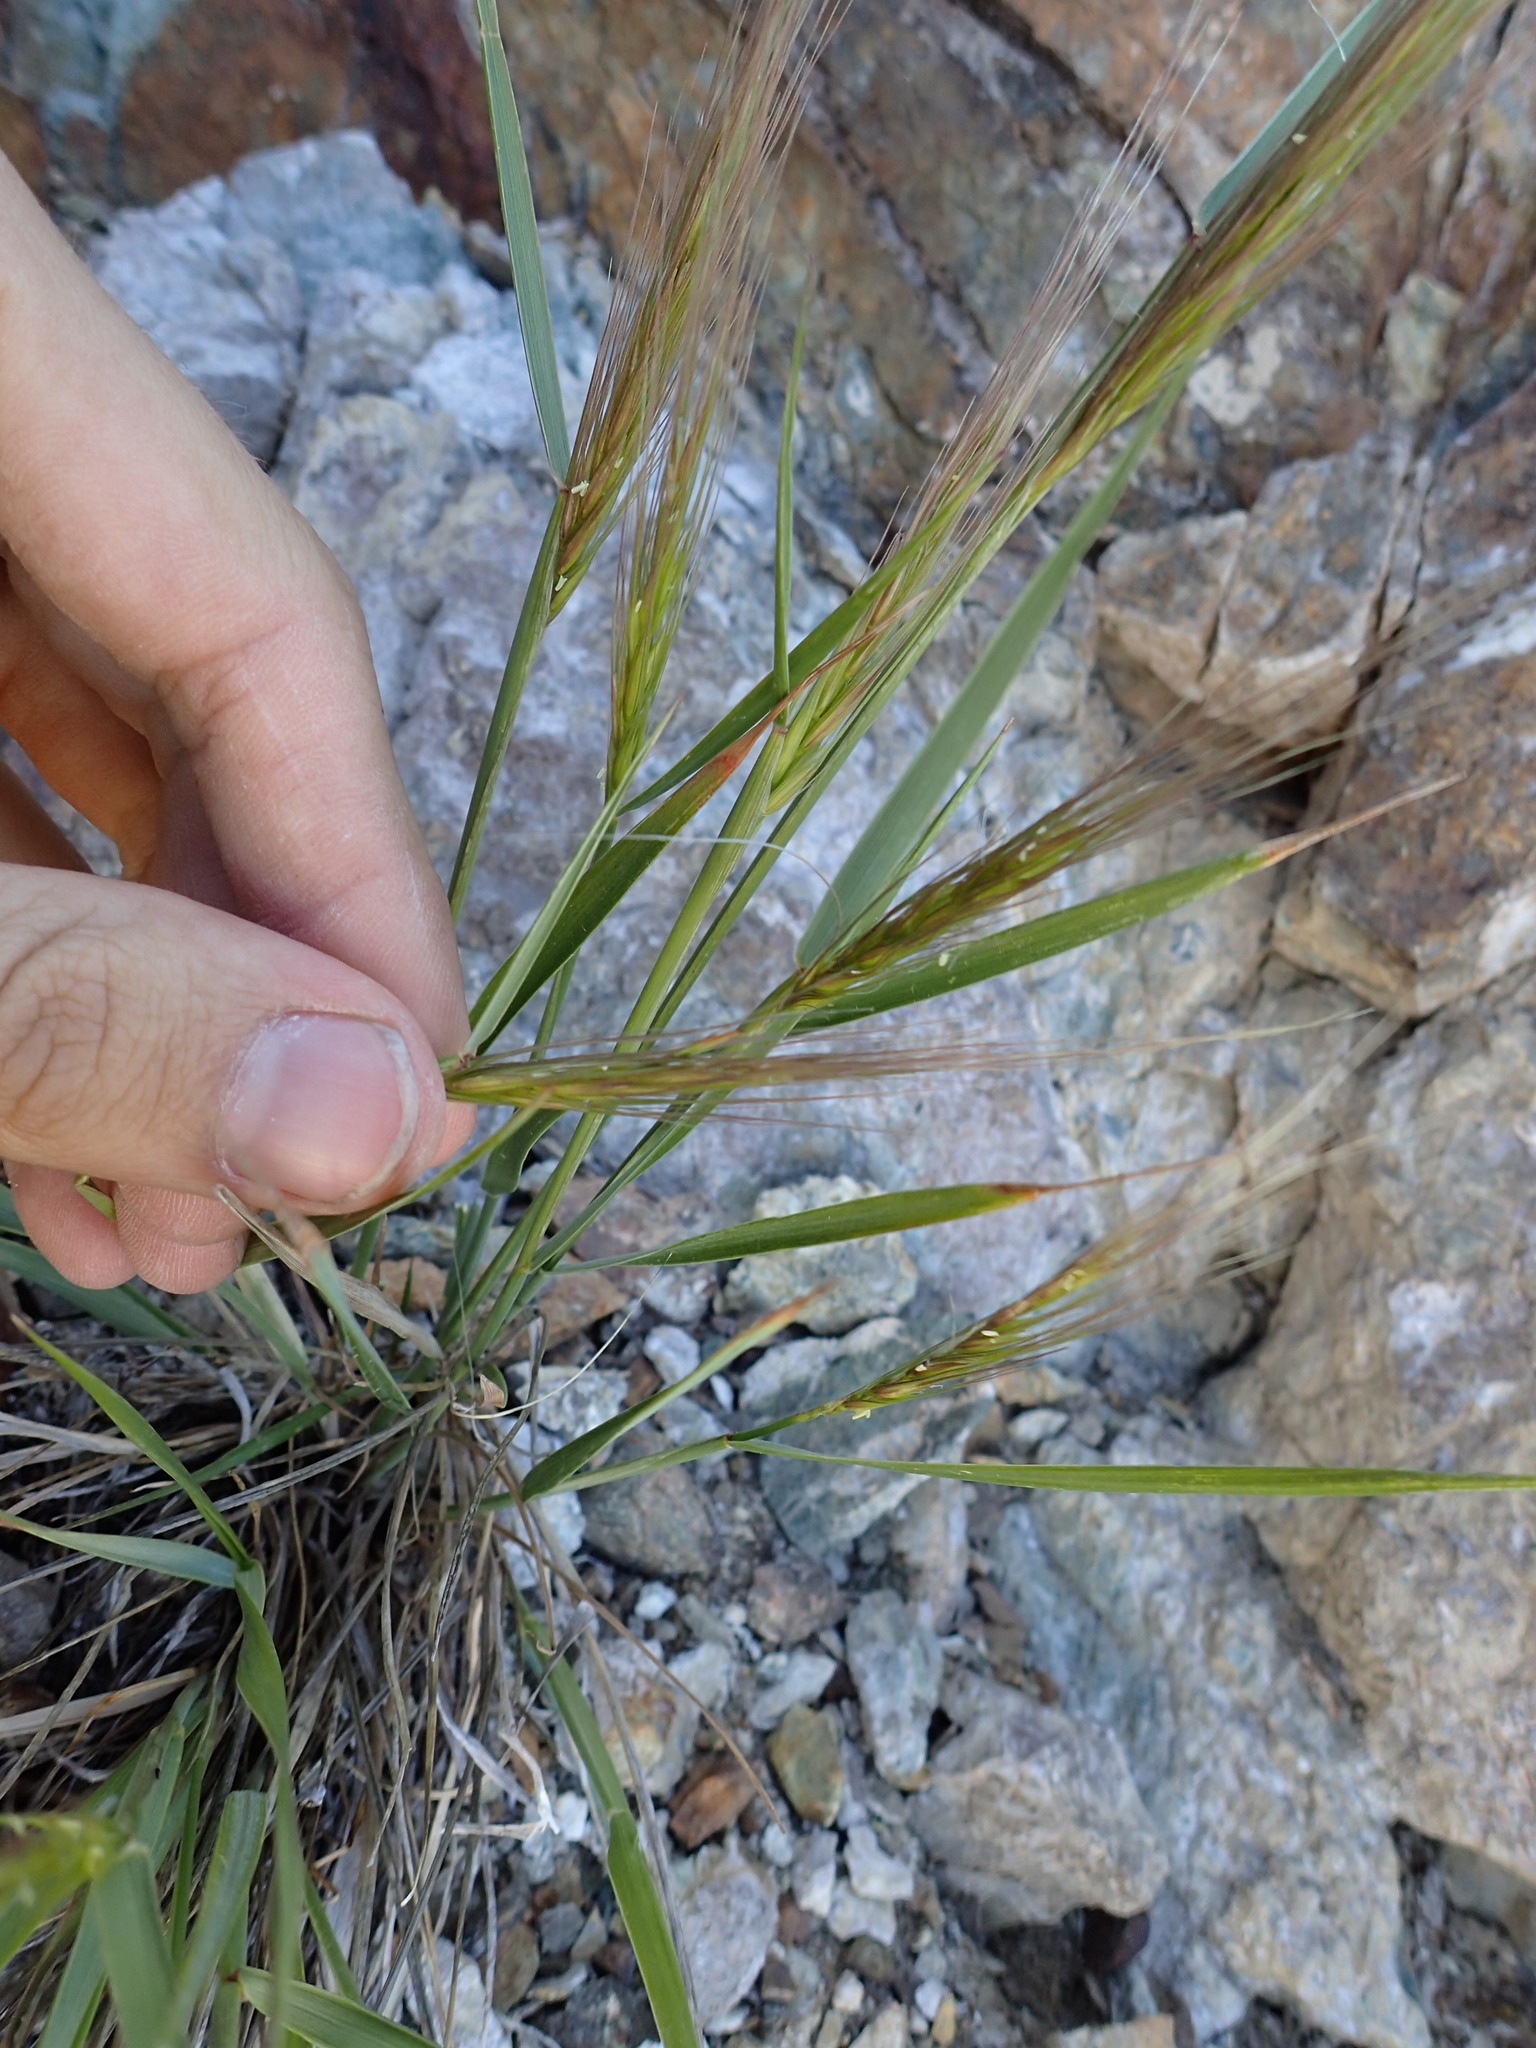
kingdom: Plantae
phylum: Tracheophyta
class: Liliopsida
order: Poales
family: Poaceae
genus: Elymus
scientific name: Elymus elymoides
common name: Bottlebrush squirreltail
